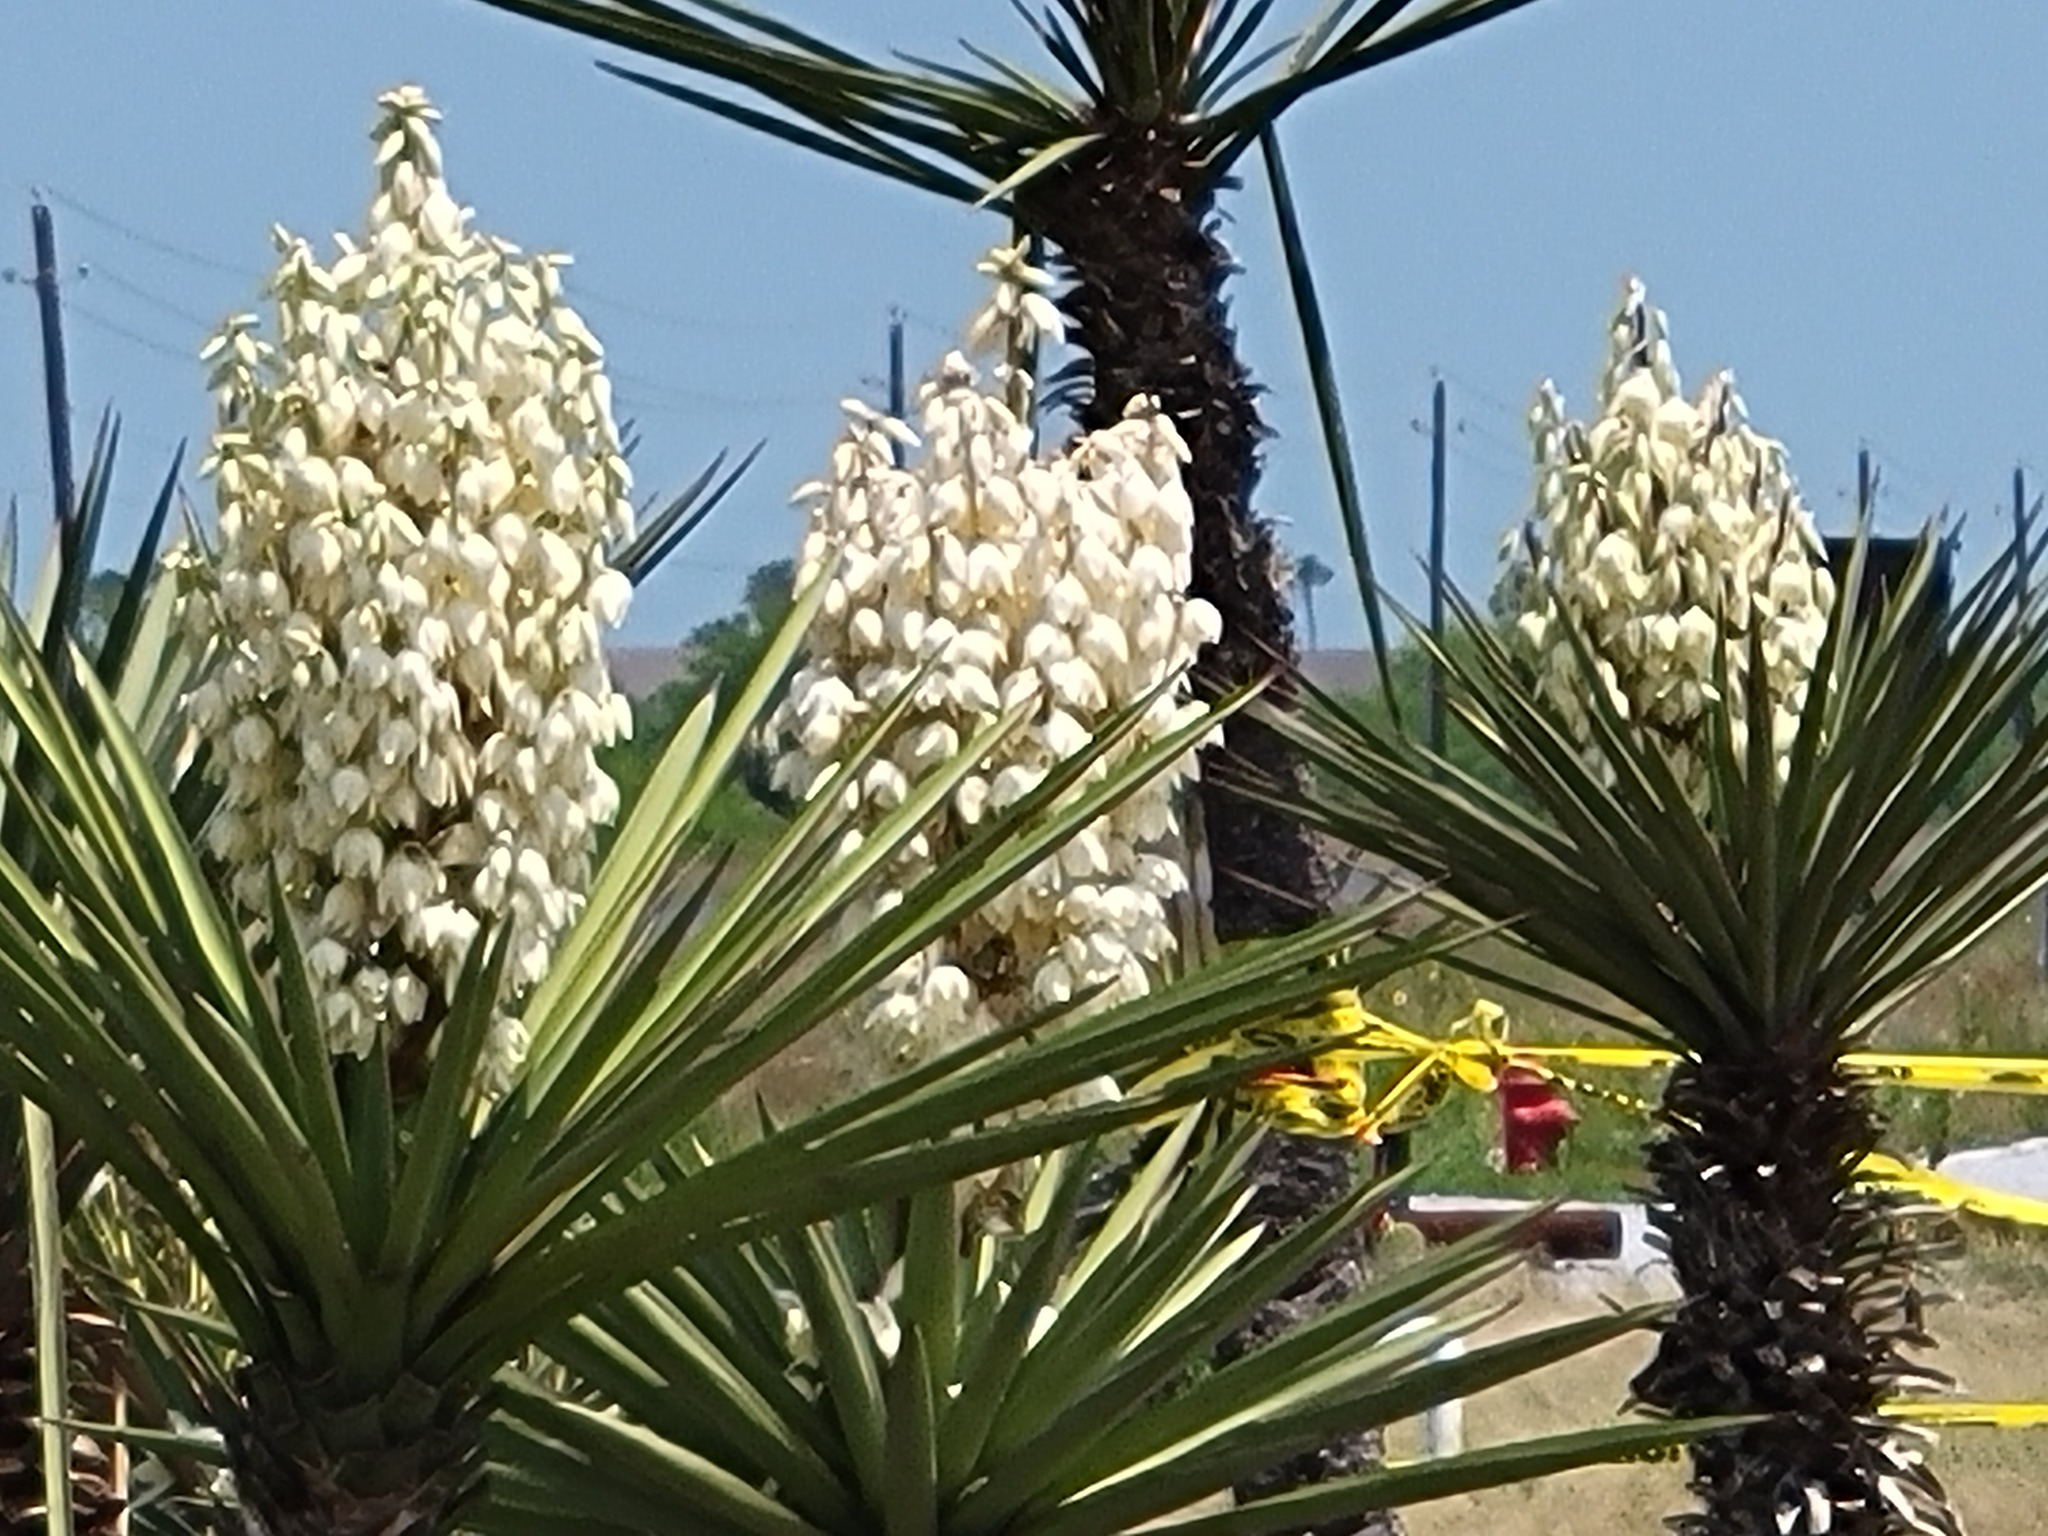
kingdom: Plantae
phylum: Tracheophyta
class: Liliopsida
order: Asparagales
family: Asparagaceae
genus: Yucca
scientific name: Yucca treculiana
